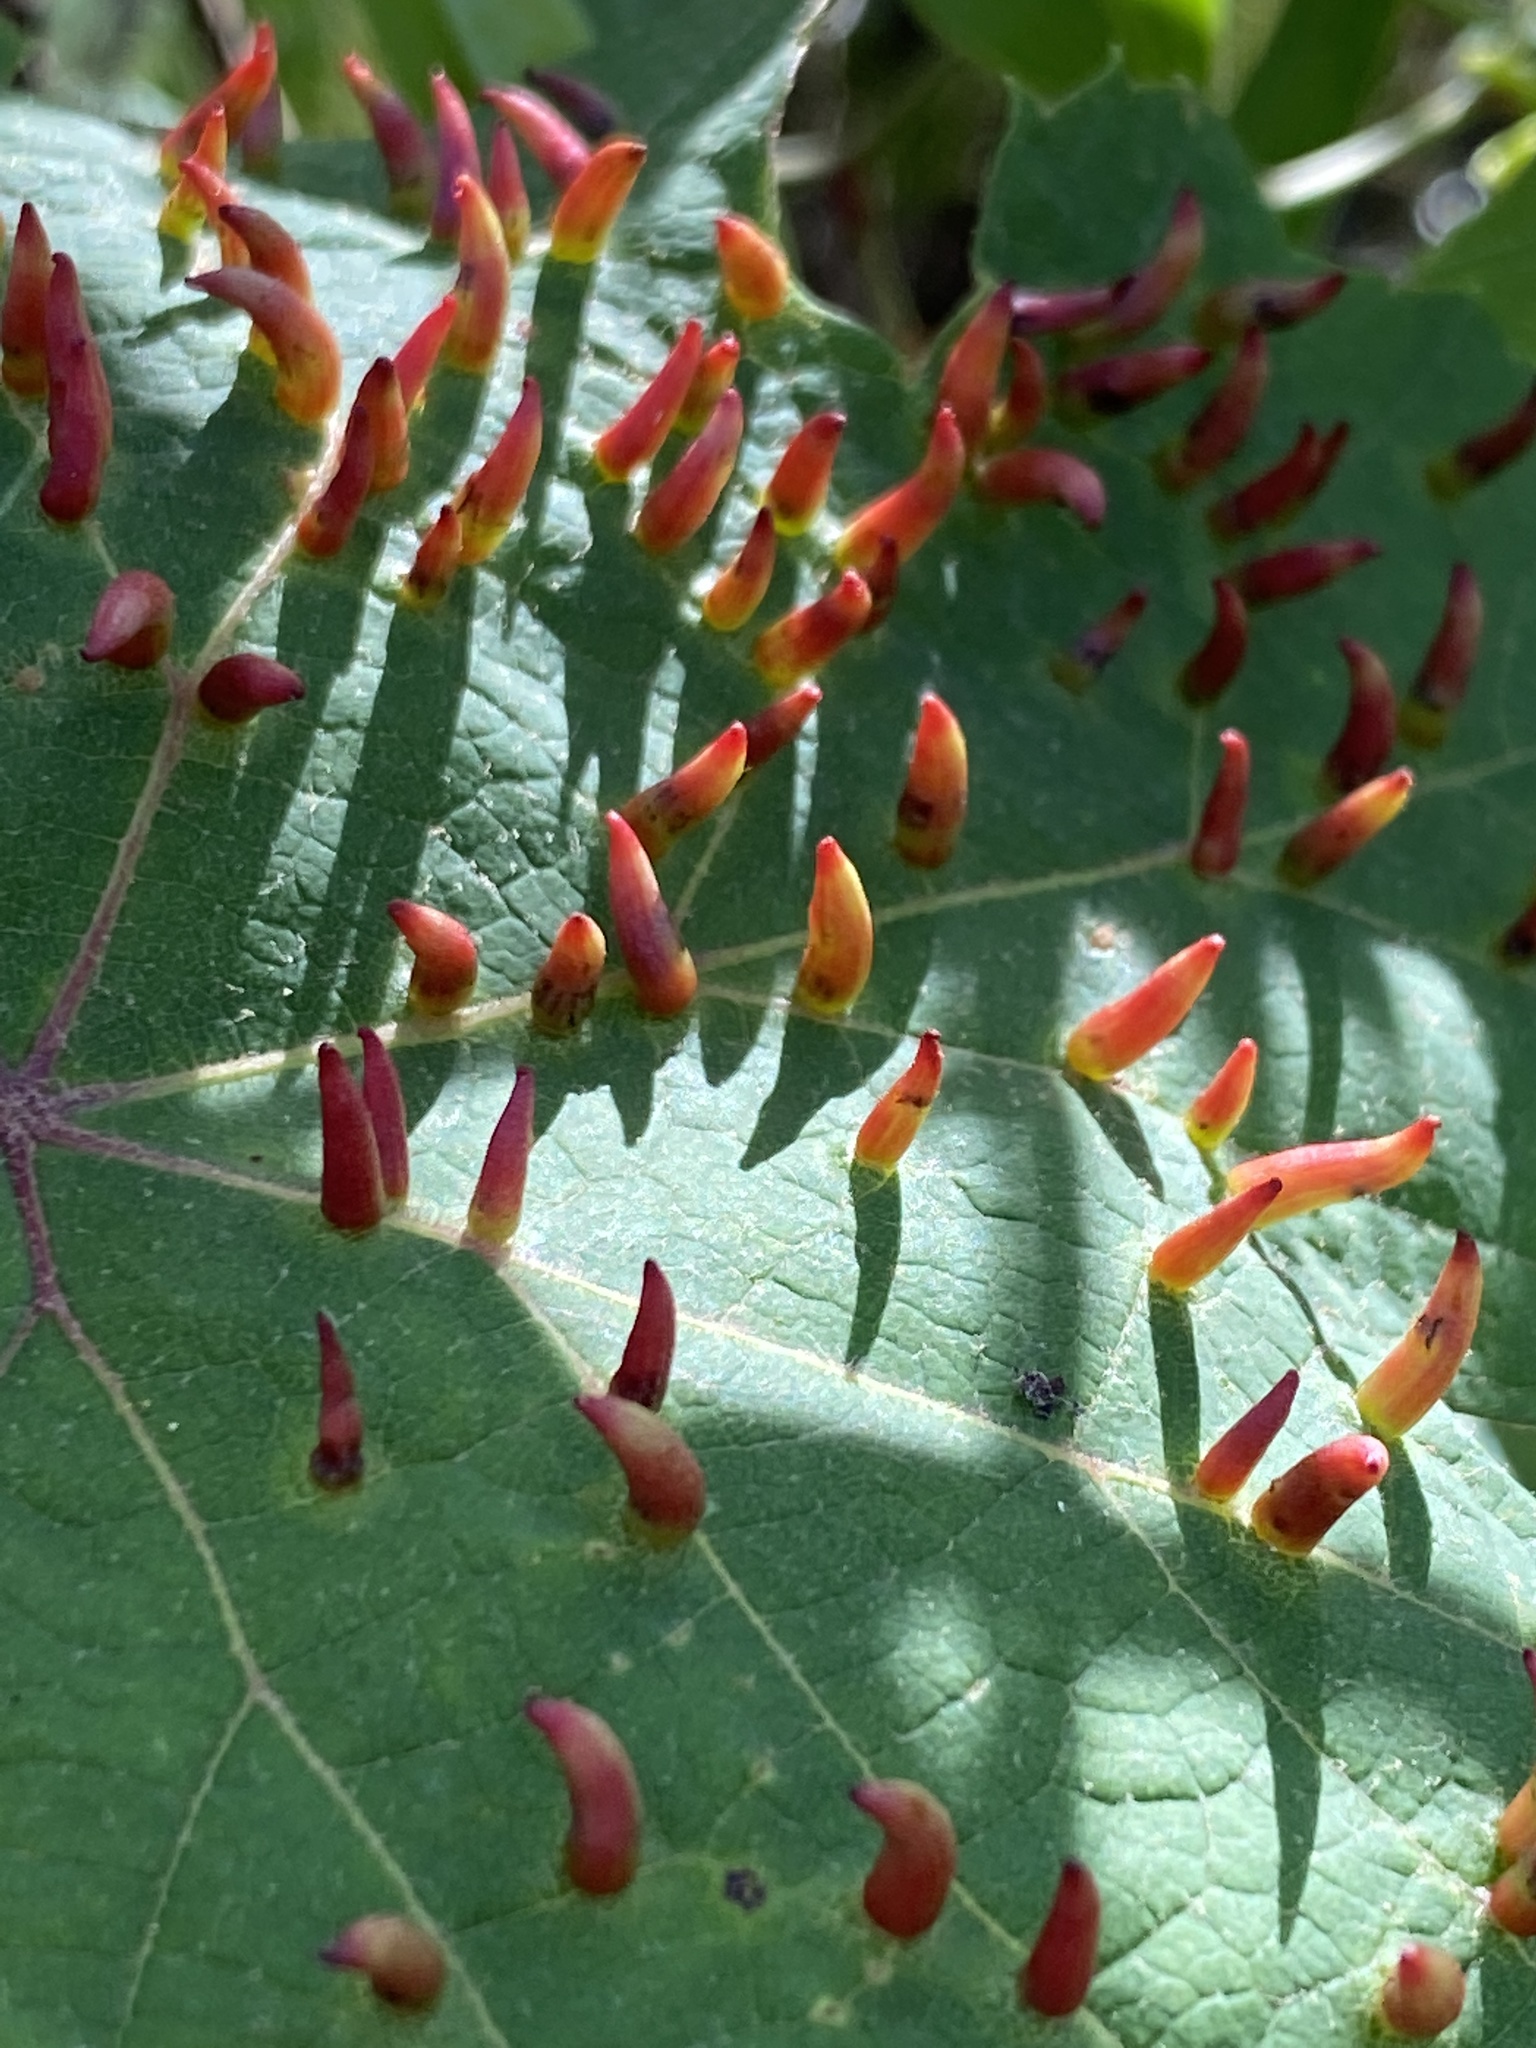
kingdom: Animalia
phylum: Arthropoda
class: Insecta
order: Diptera
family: Cecidomyiidae
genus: Ampelomyia
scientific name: Ampelomyia viticola
